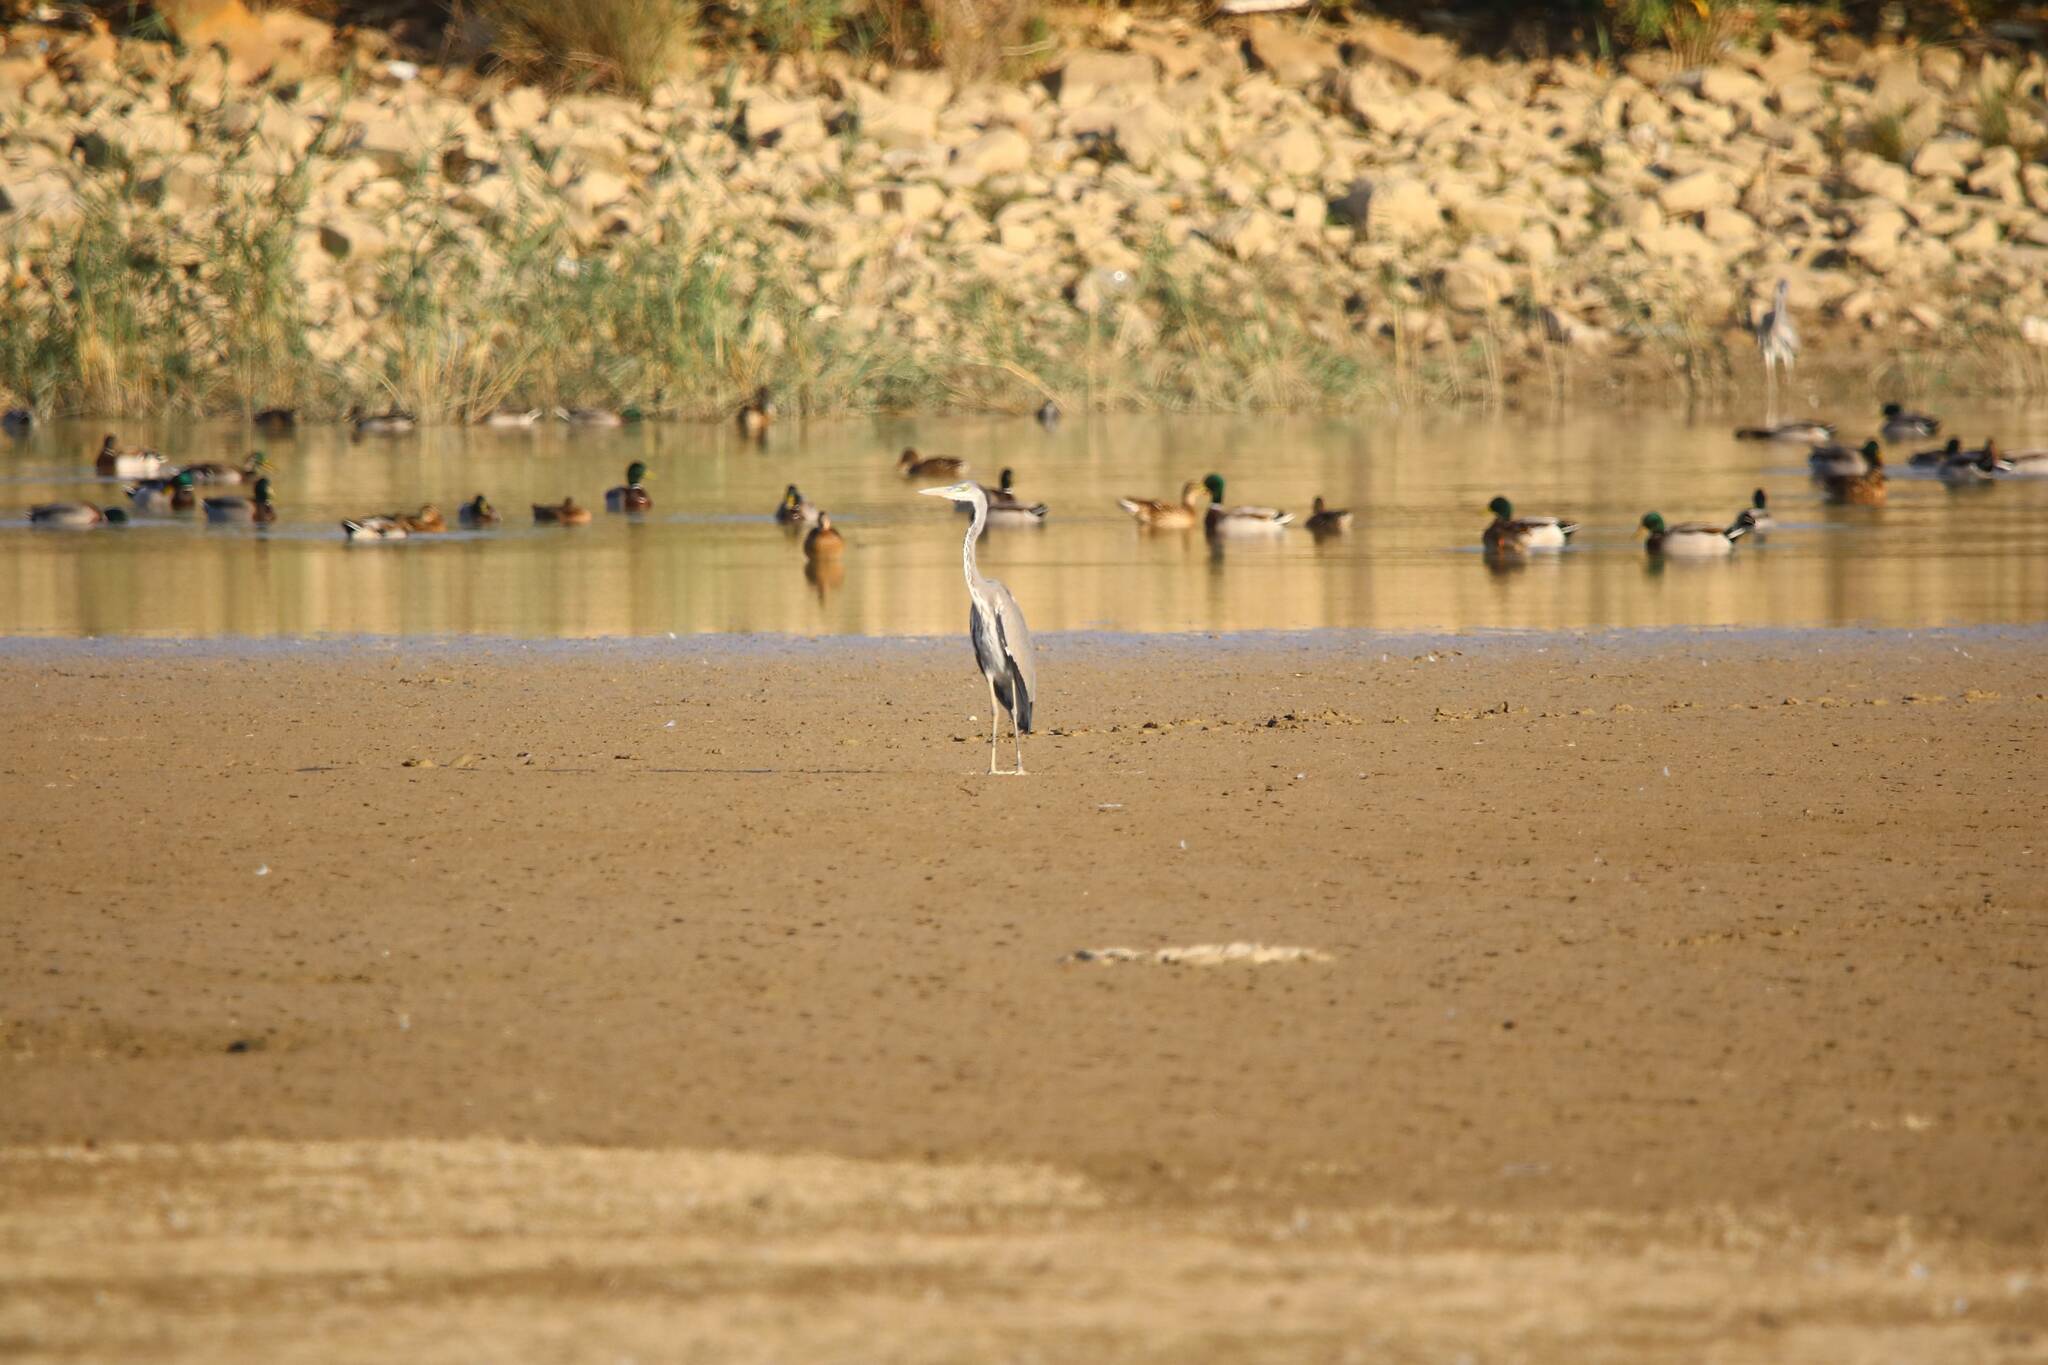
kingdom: Animalia
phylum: Chordata
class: Aves
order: Pelecaniformes
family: Ardeidae
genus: Ardea
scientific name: Ardea cinerea
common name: Grey heron
